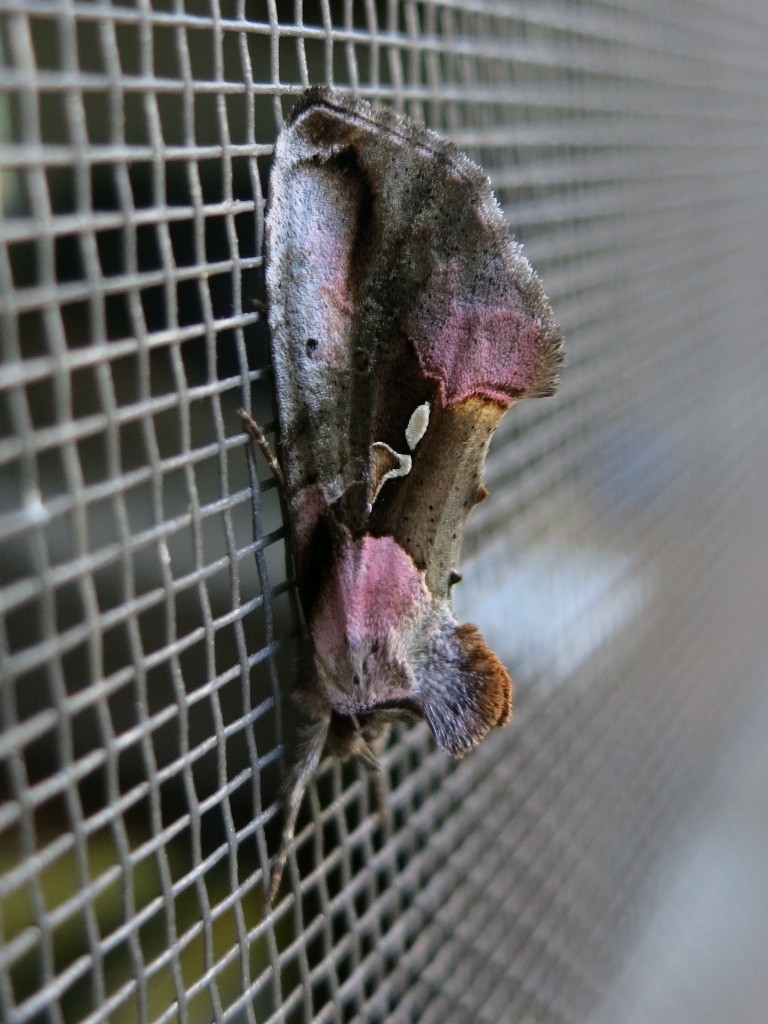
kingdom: Animalia
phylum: Arthropoda
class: Insecta
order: Lepidoptera
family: Noctuidae
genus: Eosphoropteryx
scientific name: Eosphoropteryx thyatyroides
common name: Pinkpatched looper moth
